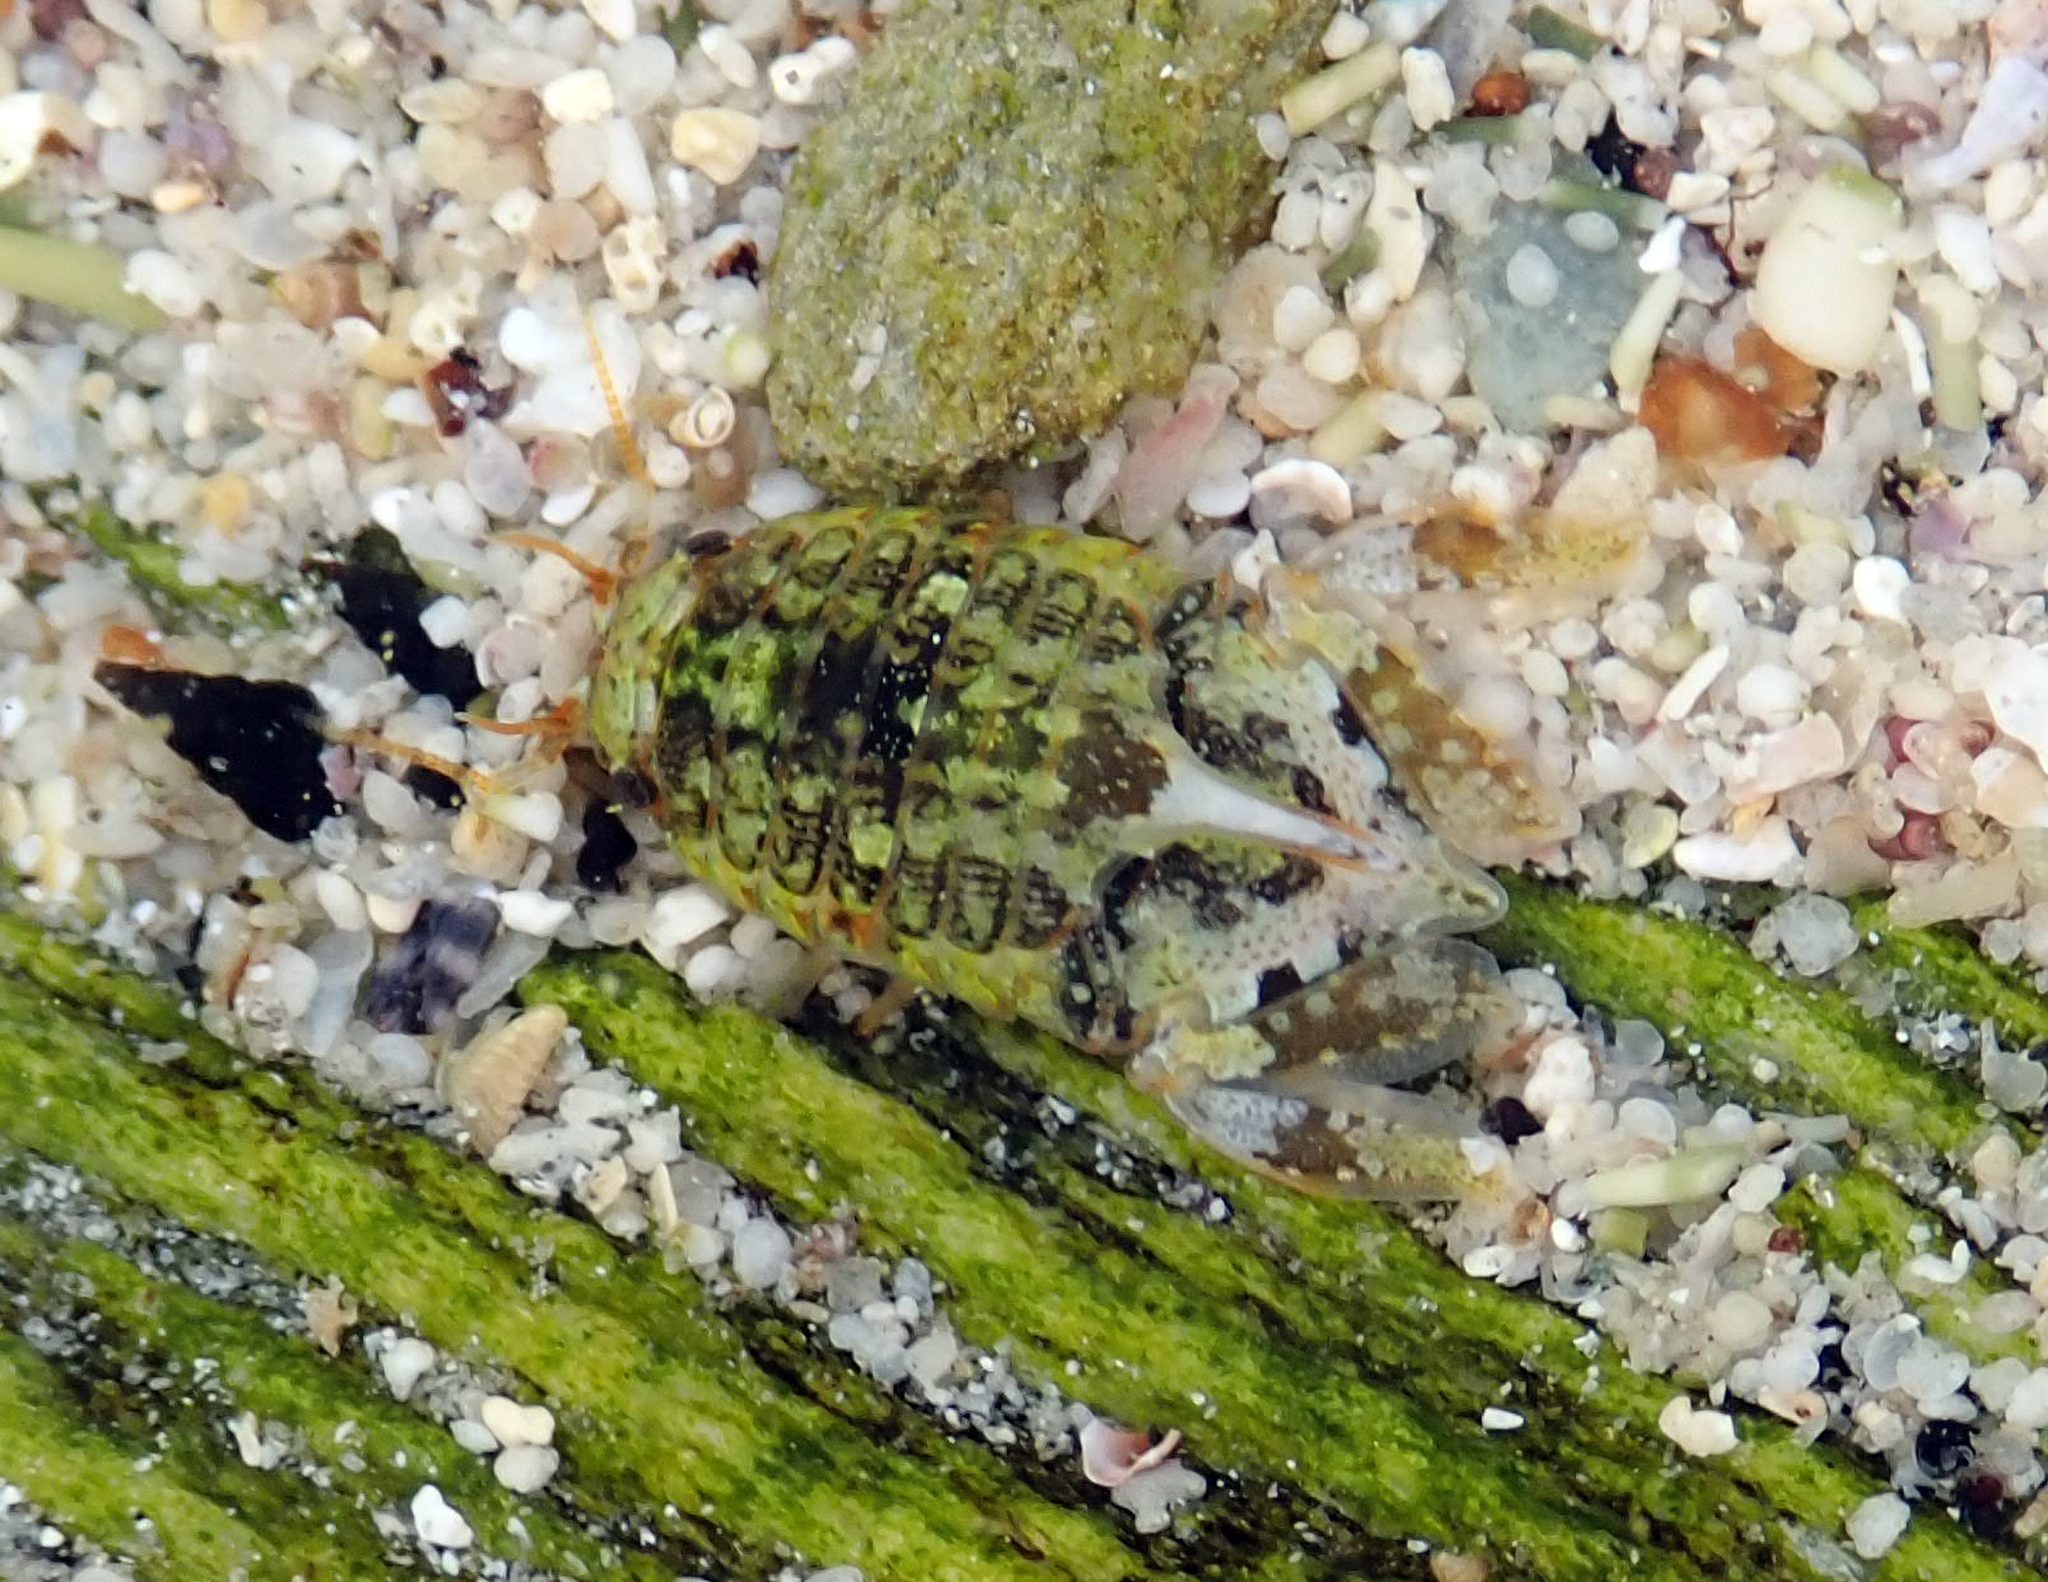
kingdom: Animalia
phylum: Arthropoda
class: Malacostraca
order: Isopoda
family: Sphaeromatidae
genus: Isocladus
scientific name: Isocladus armatus
